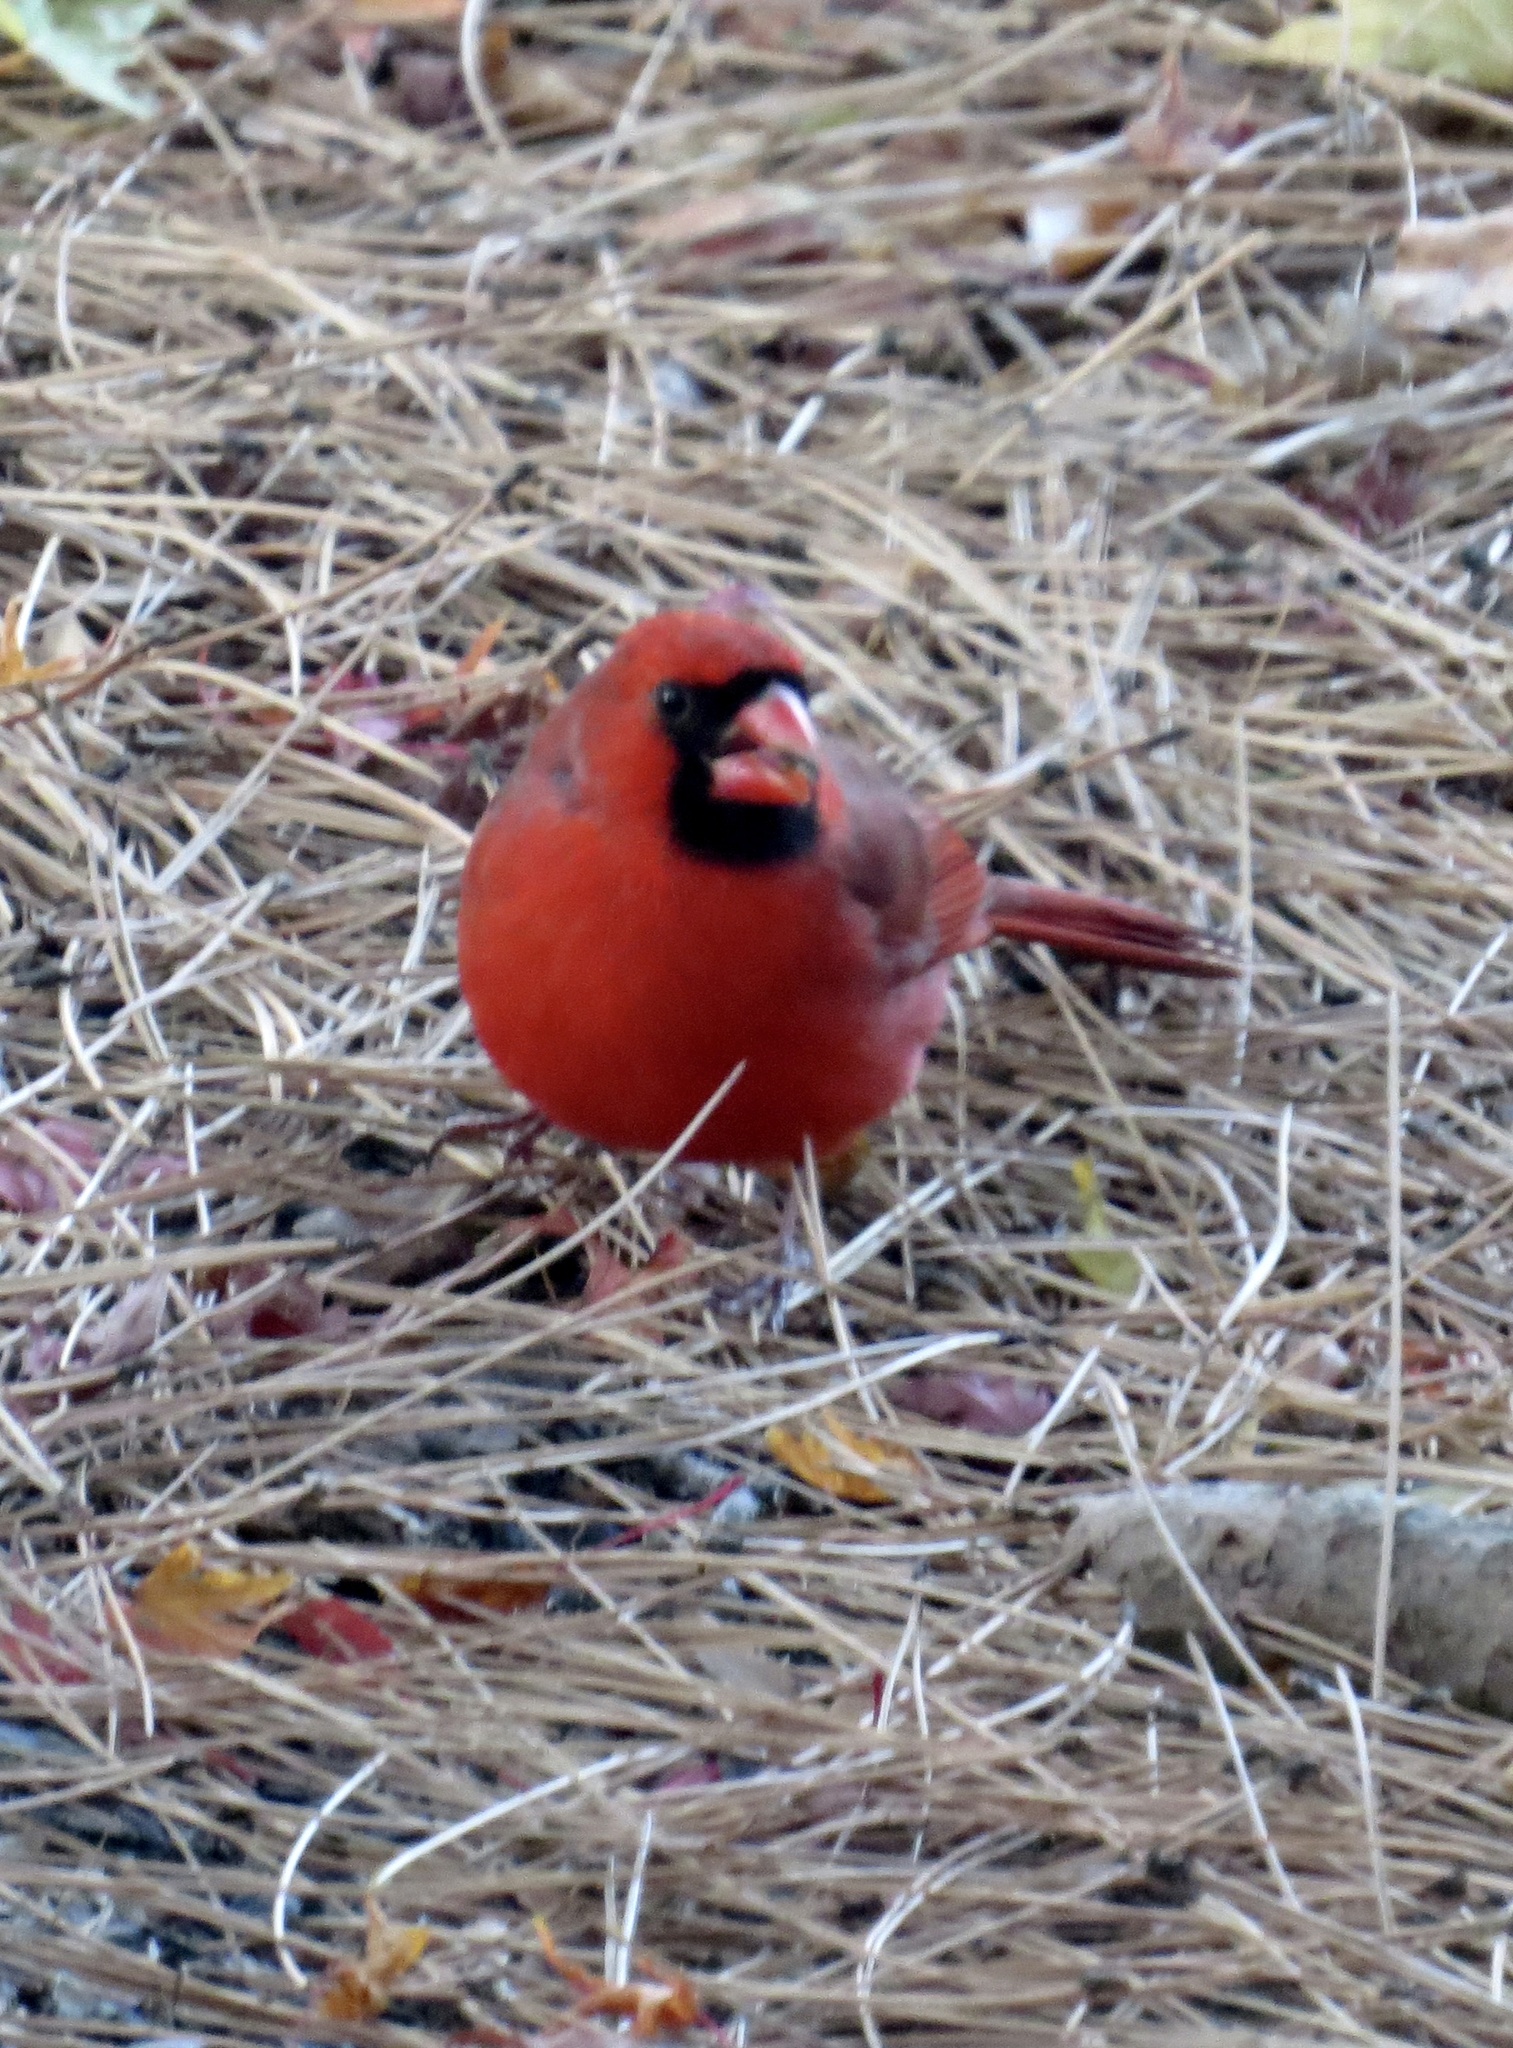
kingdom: Animalia
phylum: Chordata
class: Aves
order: Passeriformes
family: Cardinalidae
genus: Cardinalis
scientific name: Cardinalis cardinalis
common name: Northern cardinal
